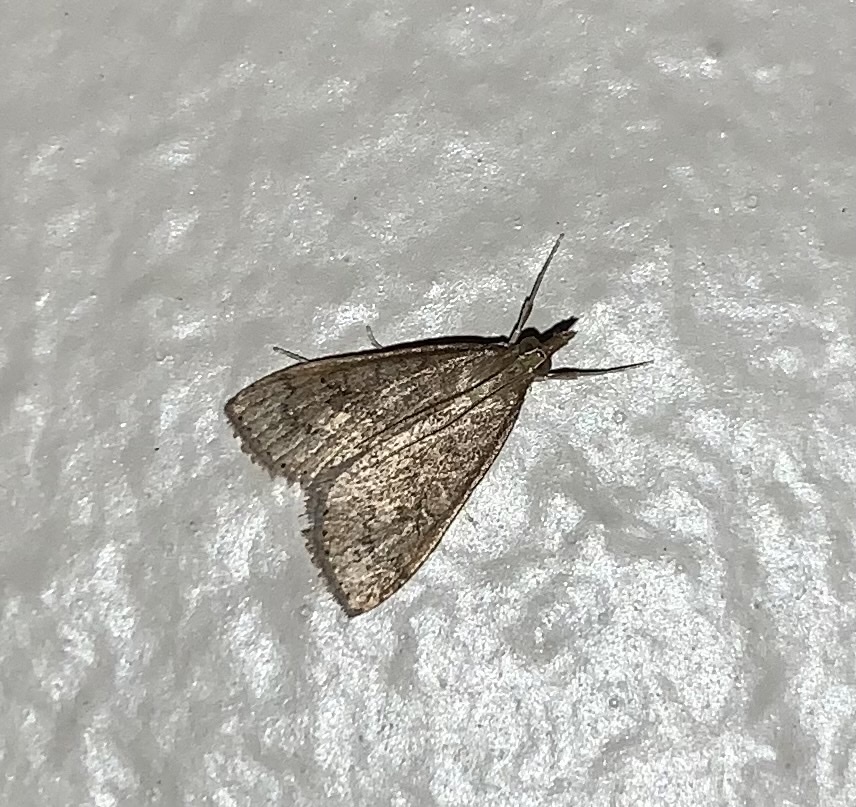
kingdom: Animalia
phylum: Arthropoda
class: Insecta
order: Lepidoptera
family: Crambidae
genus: Udea
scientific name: Udea rubigalis
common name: Celery leaftier moth
